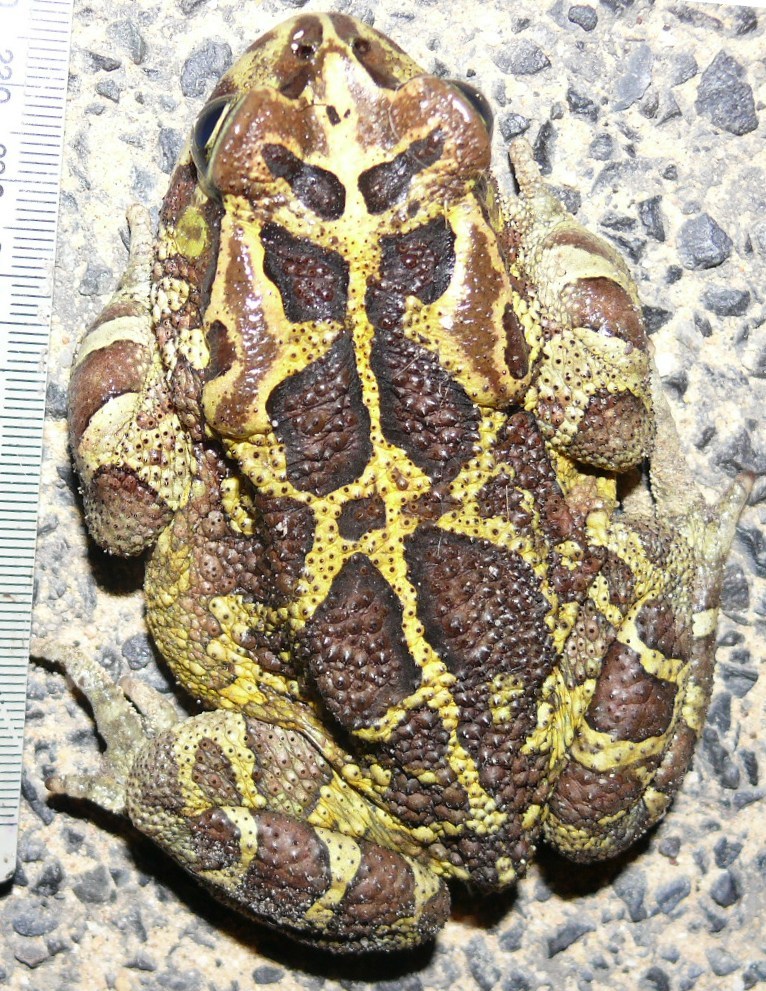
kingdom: Animalia
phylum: Chordata
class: Amphibia
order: Anura
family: Bufonidae
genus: Sclerophrys
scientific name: Sclerophrys pantherina
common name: Panther toad
